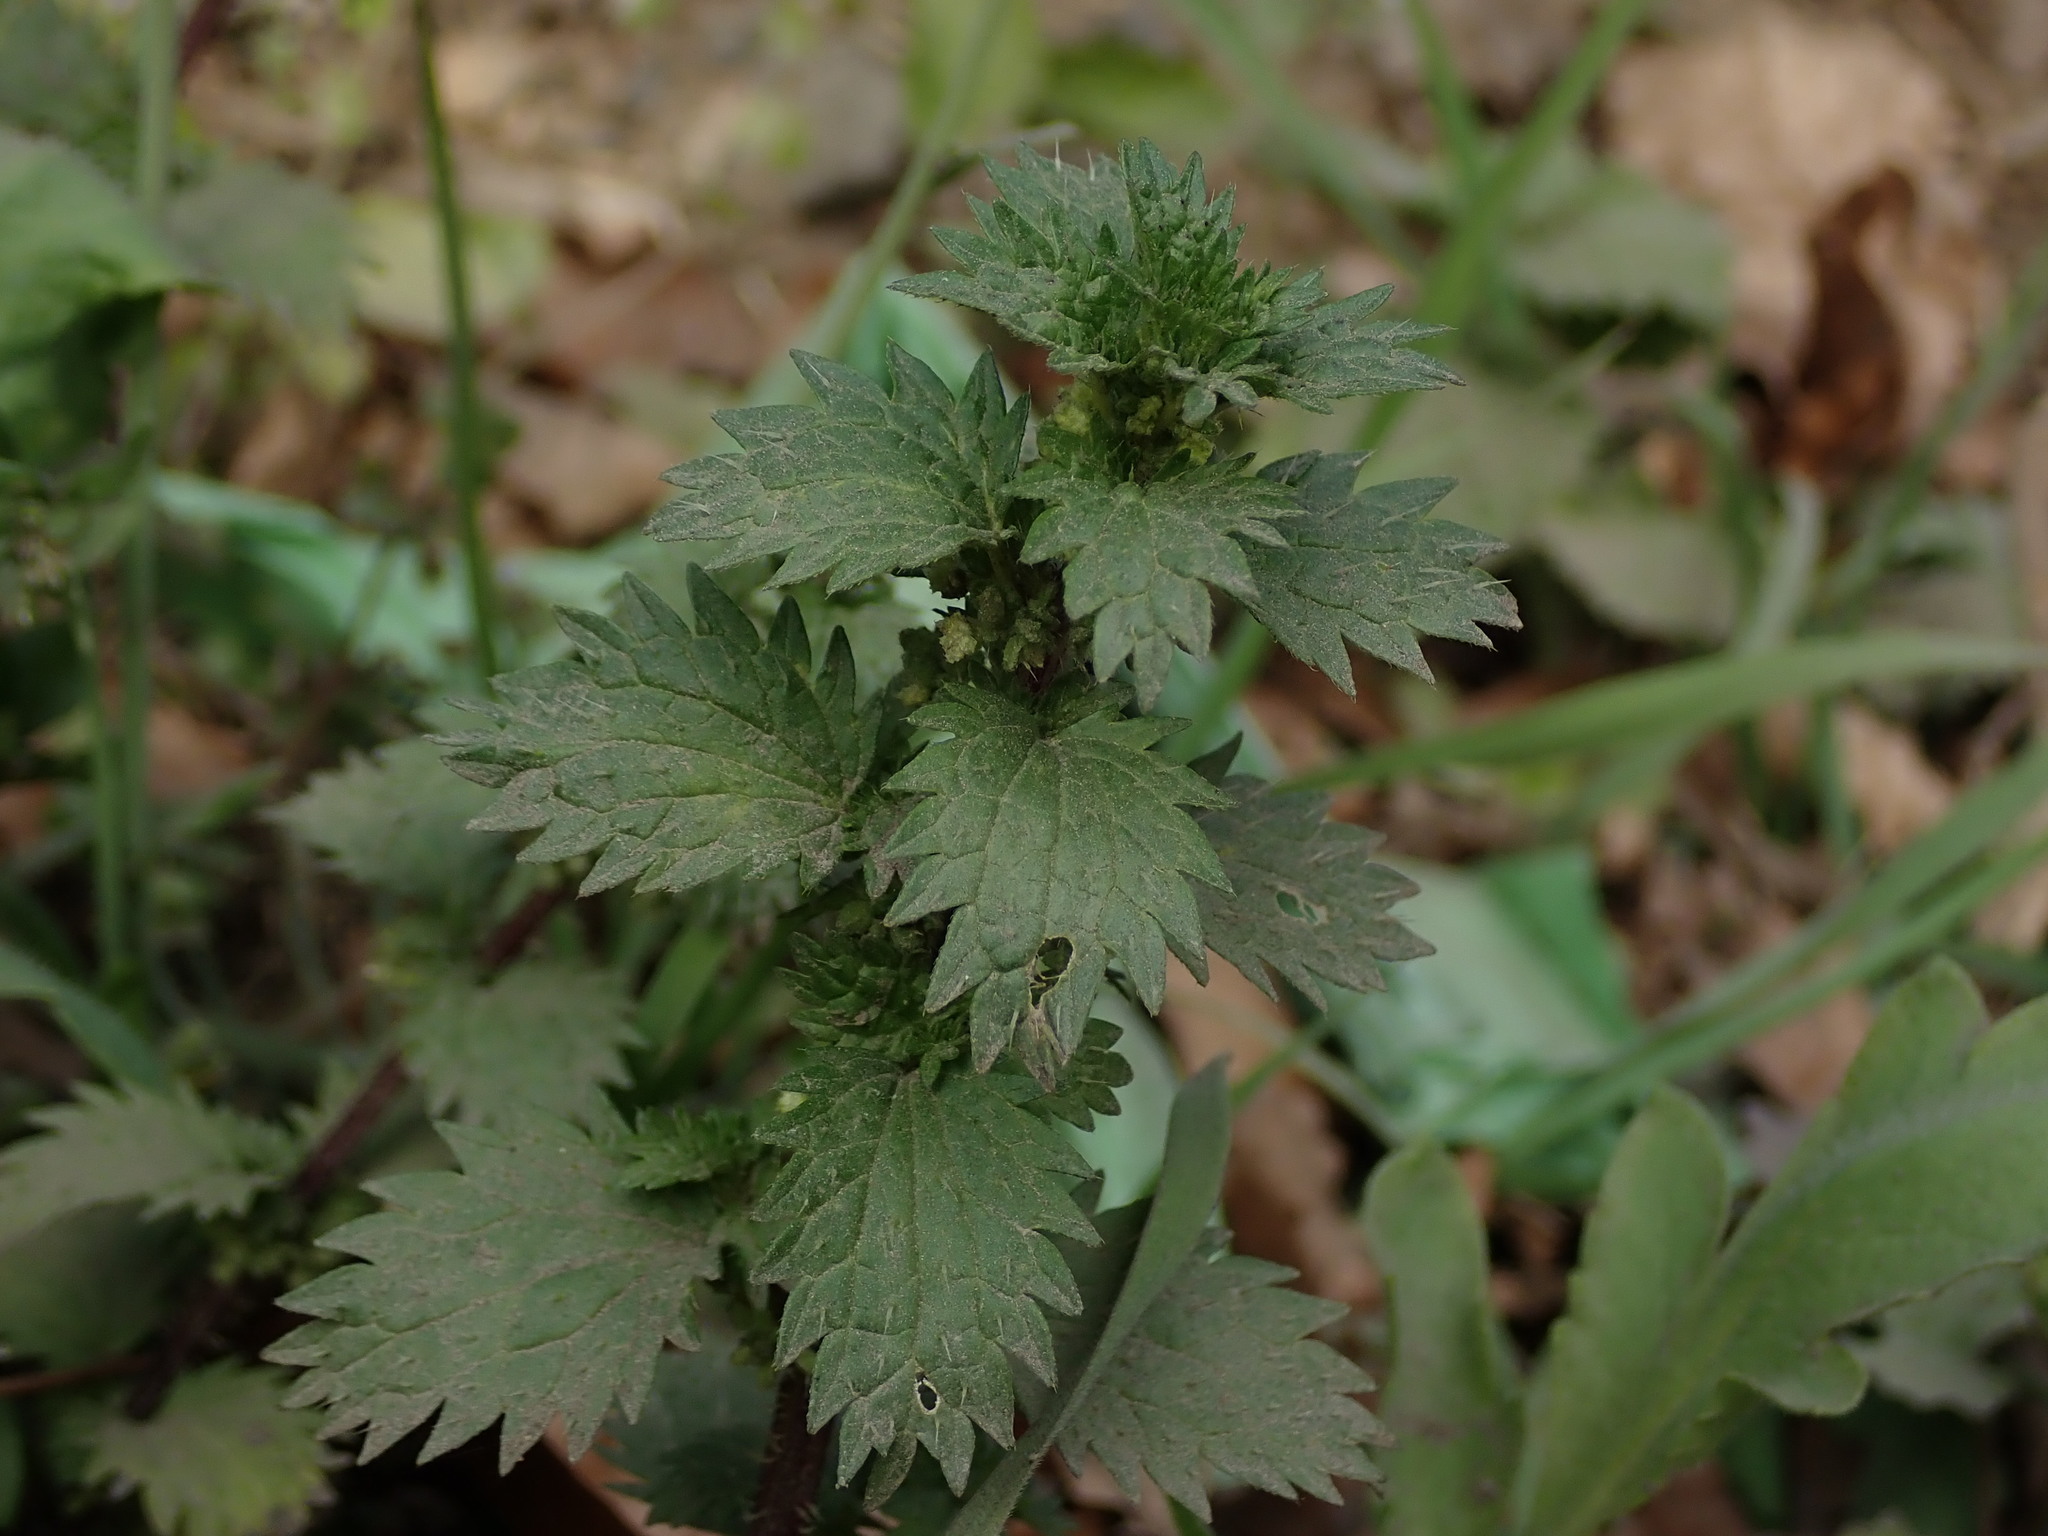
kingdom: Plantae
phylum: Tracheophyta
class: Magnoliopsida
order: Rosales
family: Urticaceae
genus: Urtica
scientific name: Urtica urens
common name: Dwarf nettle
